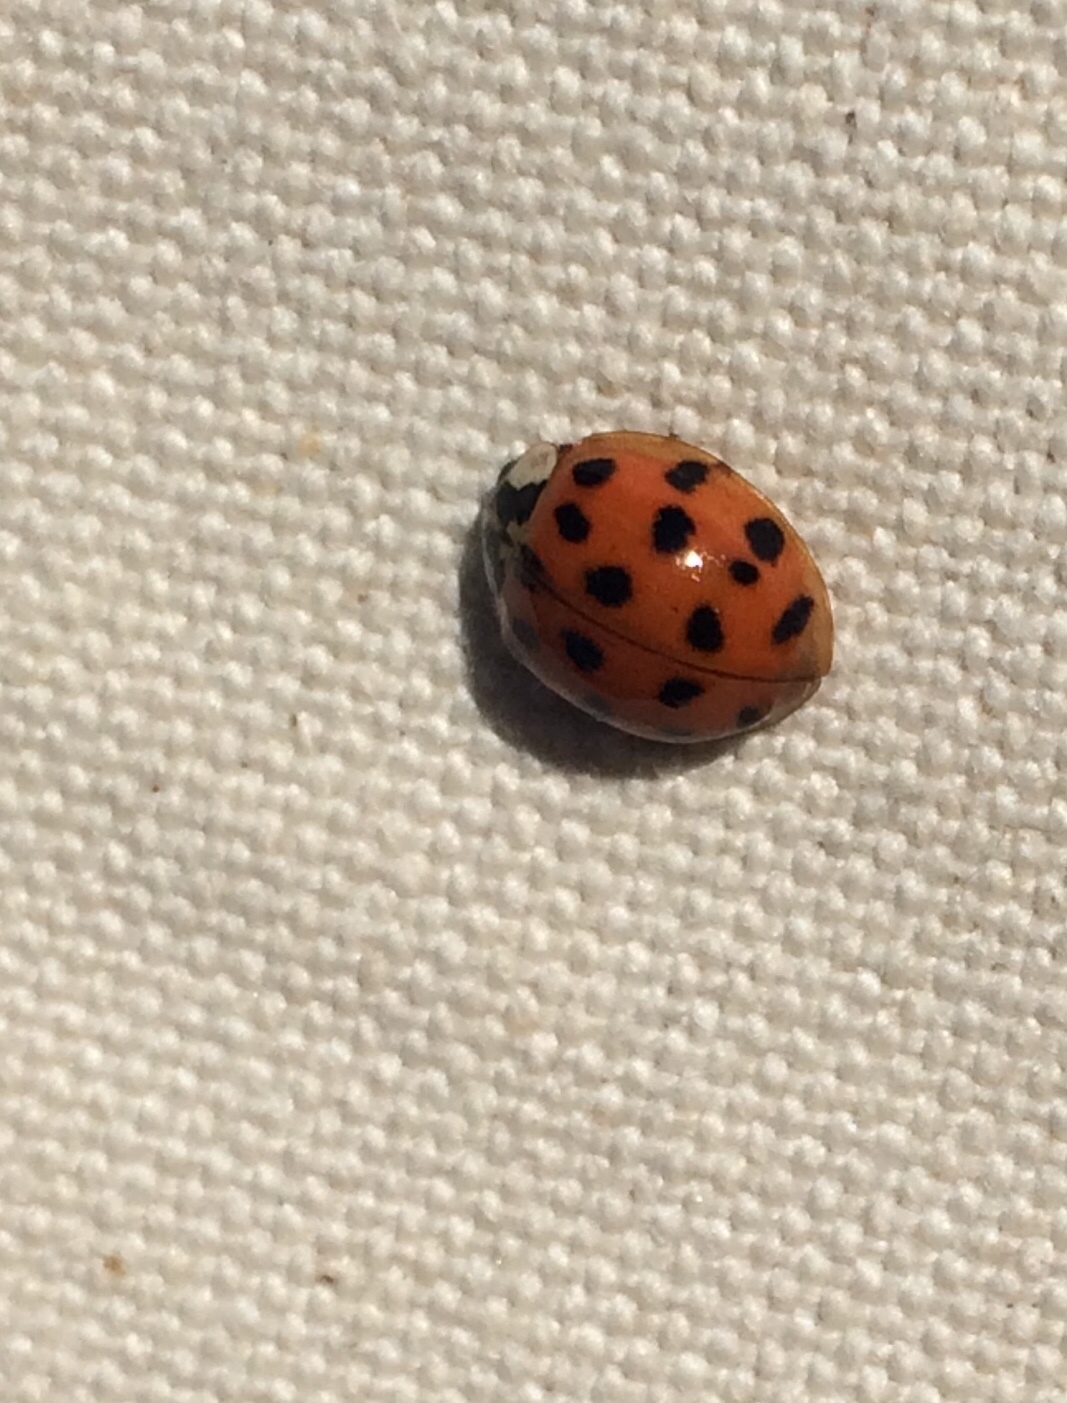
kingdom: Animalia
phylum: Arthropoda
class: Insecta
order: Coleoptera
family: Coccinellidae
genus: Harmonia
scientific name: Harmonia axyridis
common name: Harlequin ladybird
